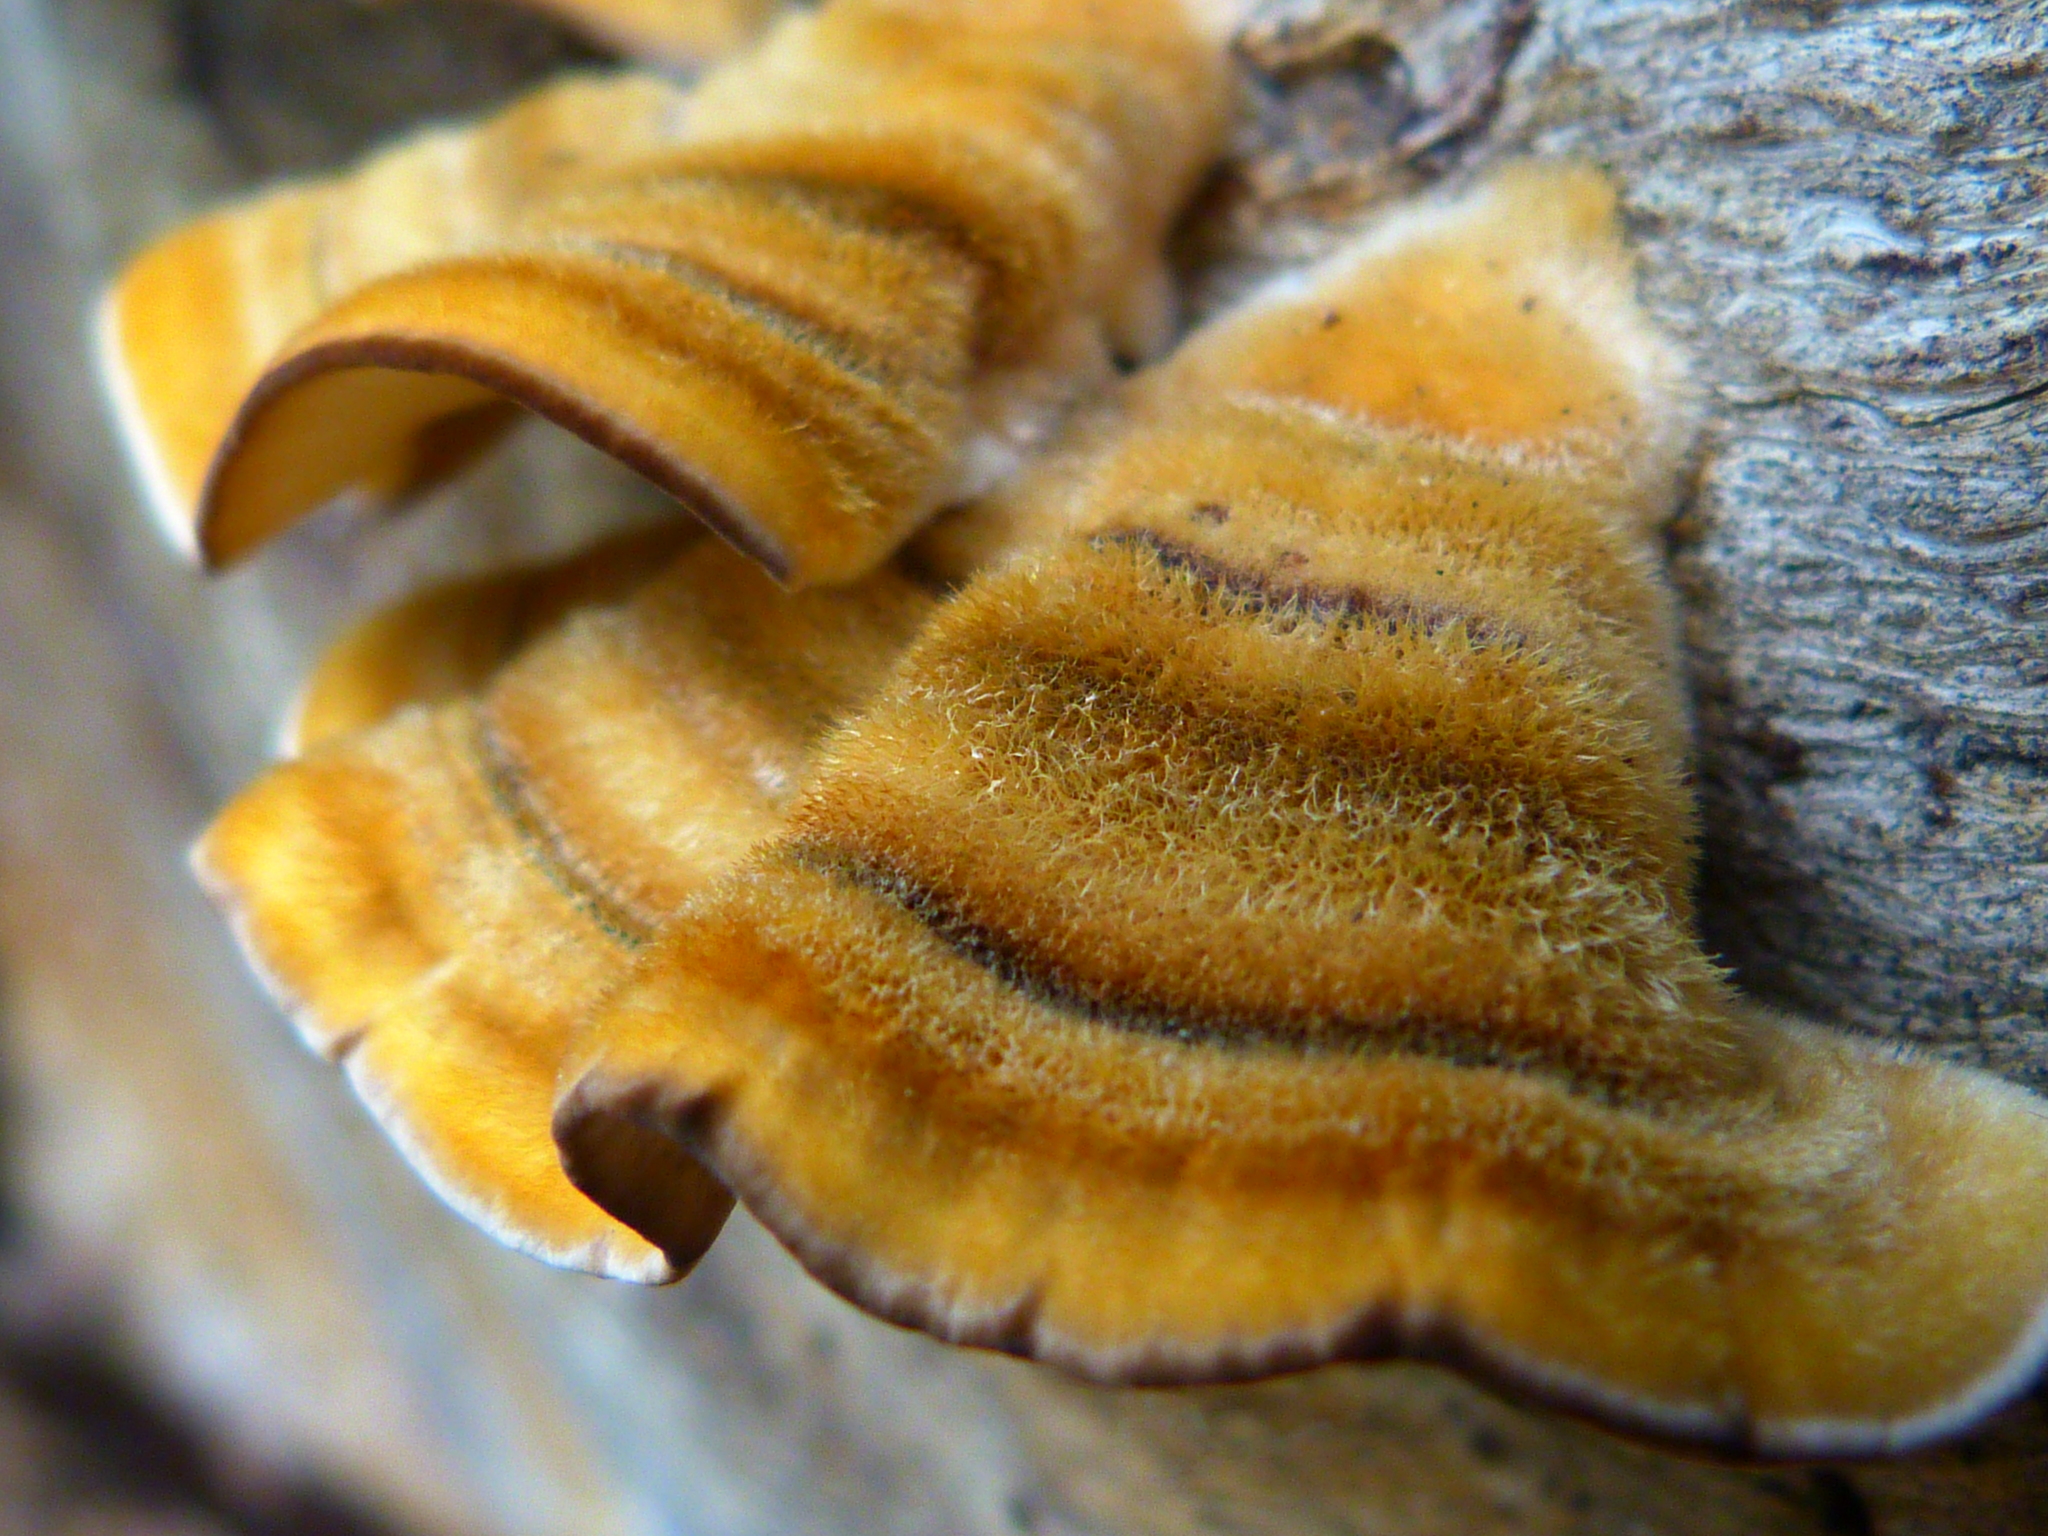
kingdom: Fungi
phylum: Basidiomycota
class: Agaricomycetes
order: Russulales
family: Stereaceae
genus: Stereum
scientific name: Stereum hirsutum
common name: Hairy curtain crust
